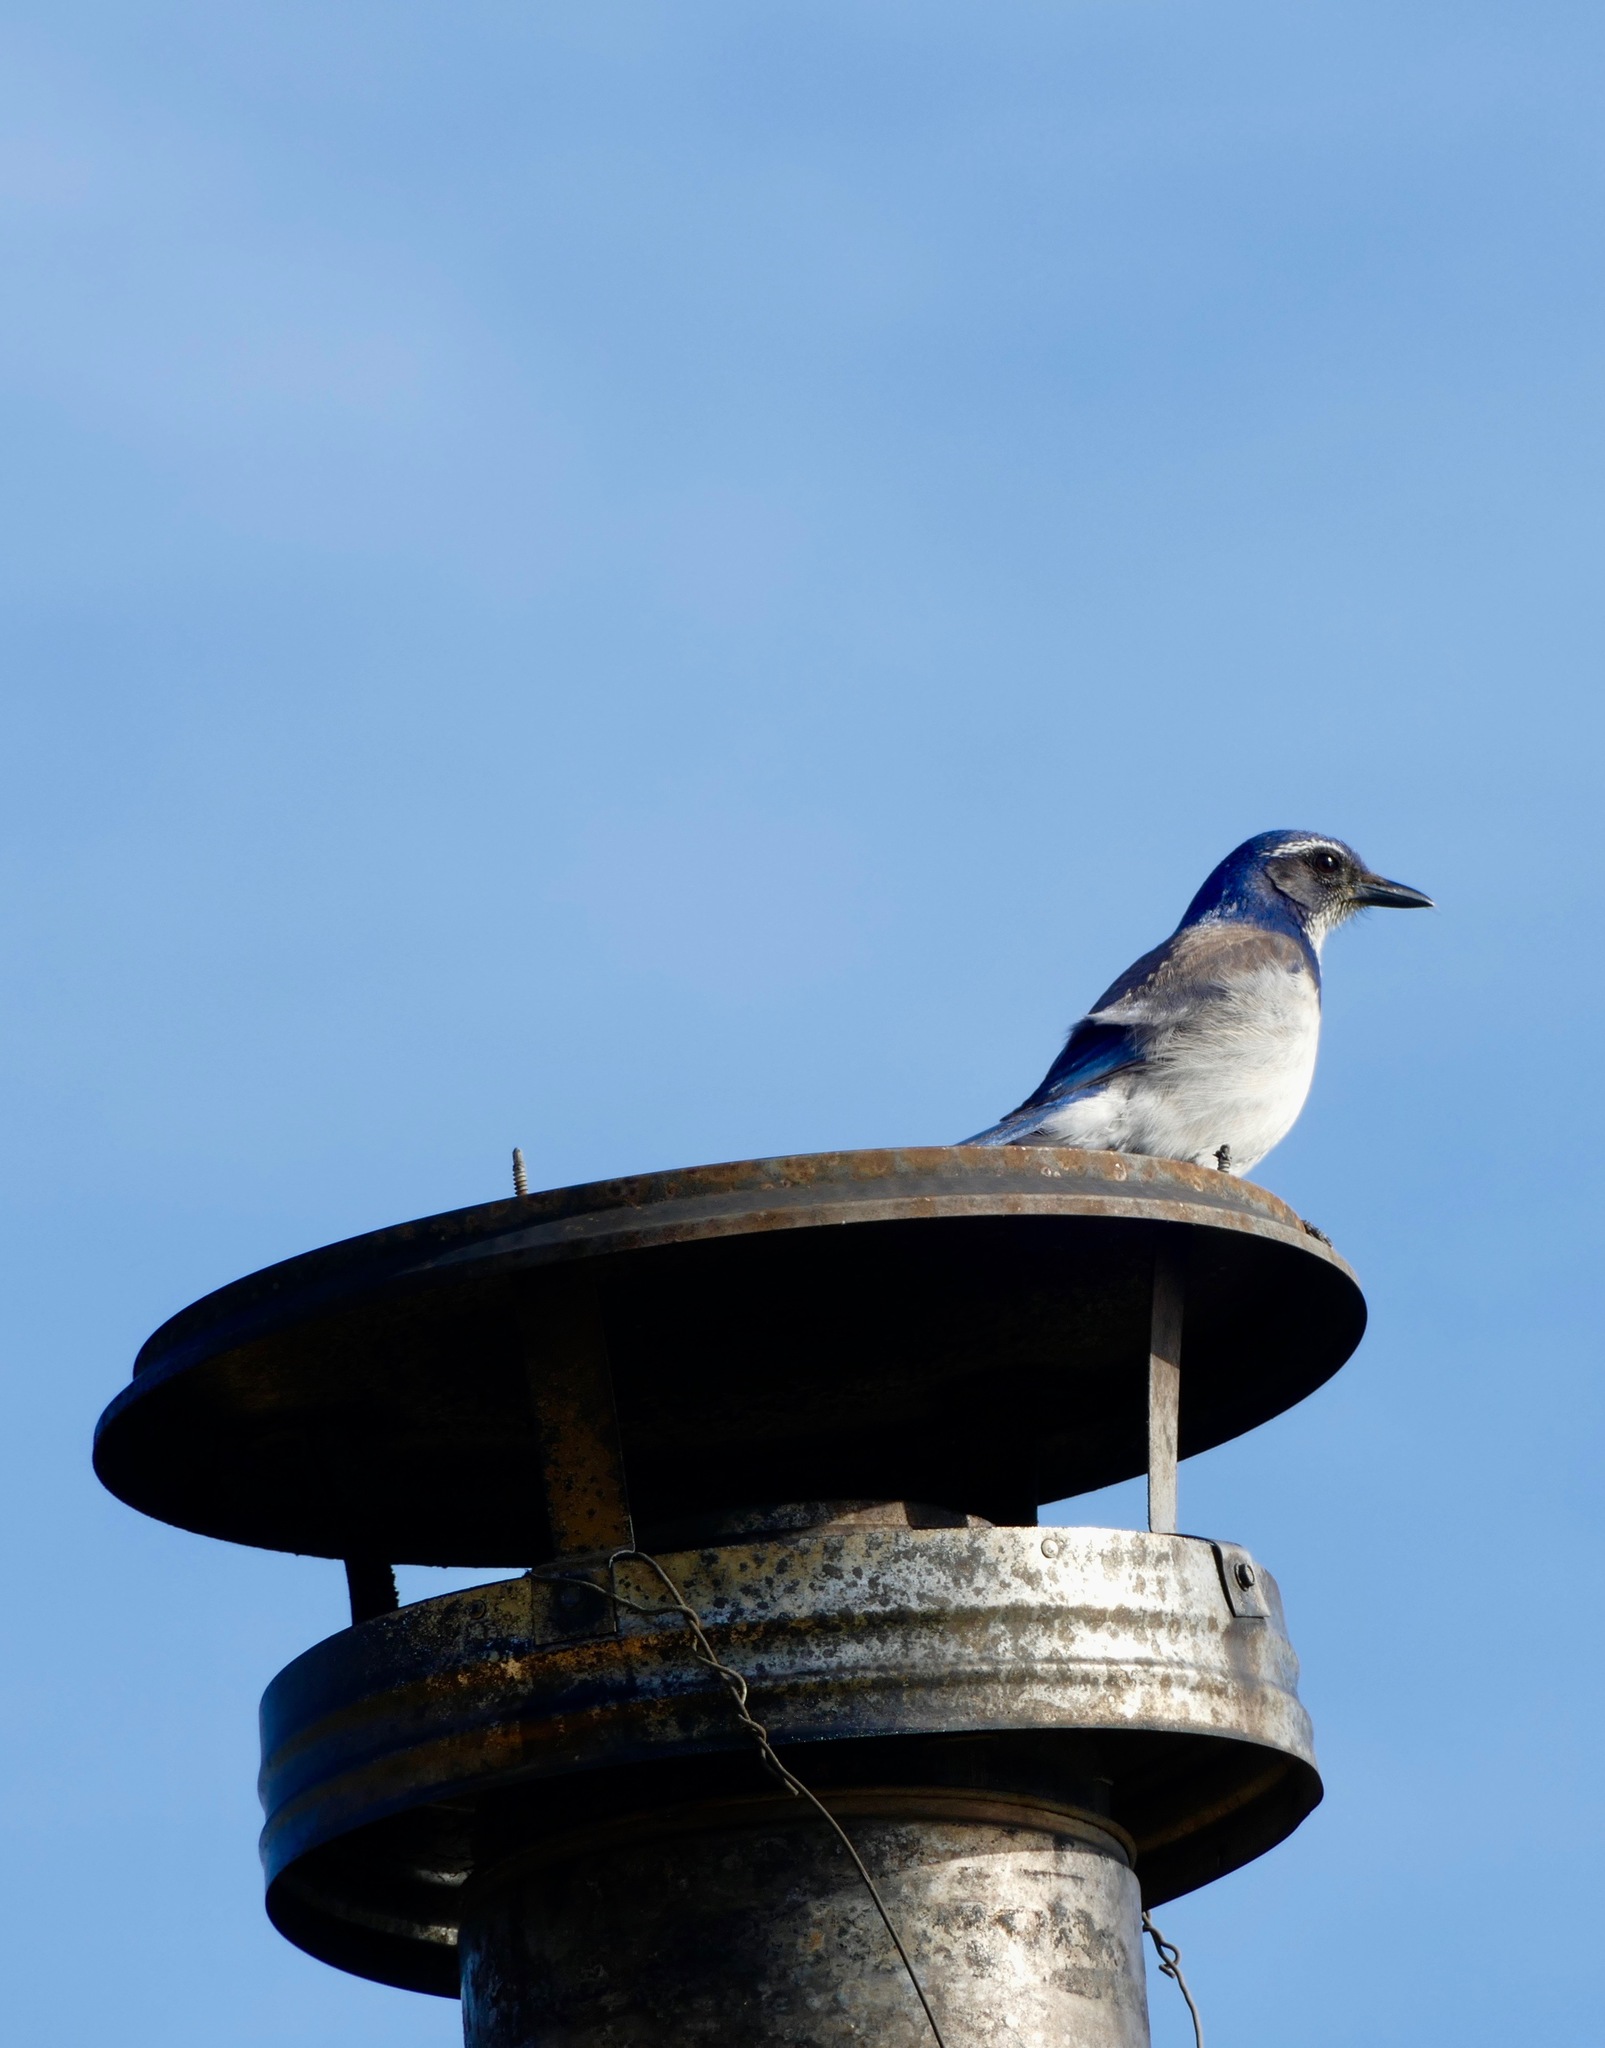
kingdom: Animalia
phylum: Chordata
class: Aves
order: Passeriformes
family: Corvidae
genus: Aphelocoma
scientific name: Aphelocoma californica
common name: California scrub-jay
